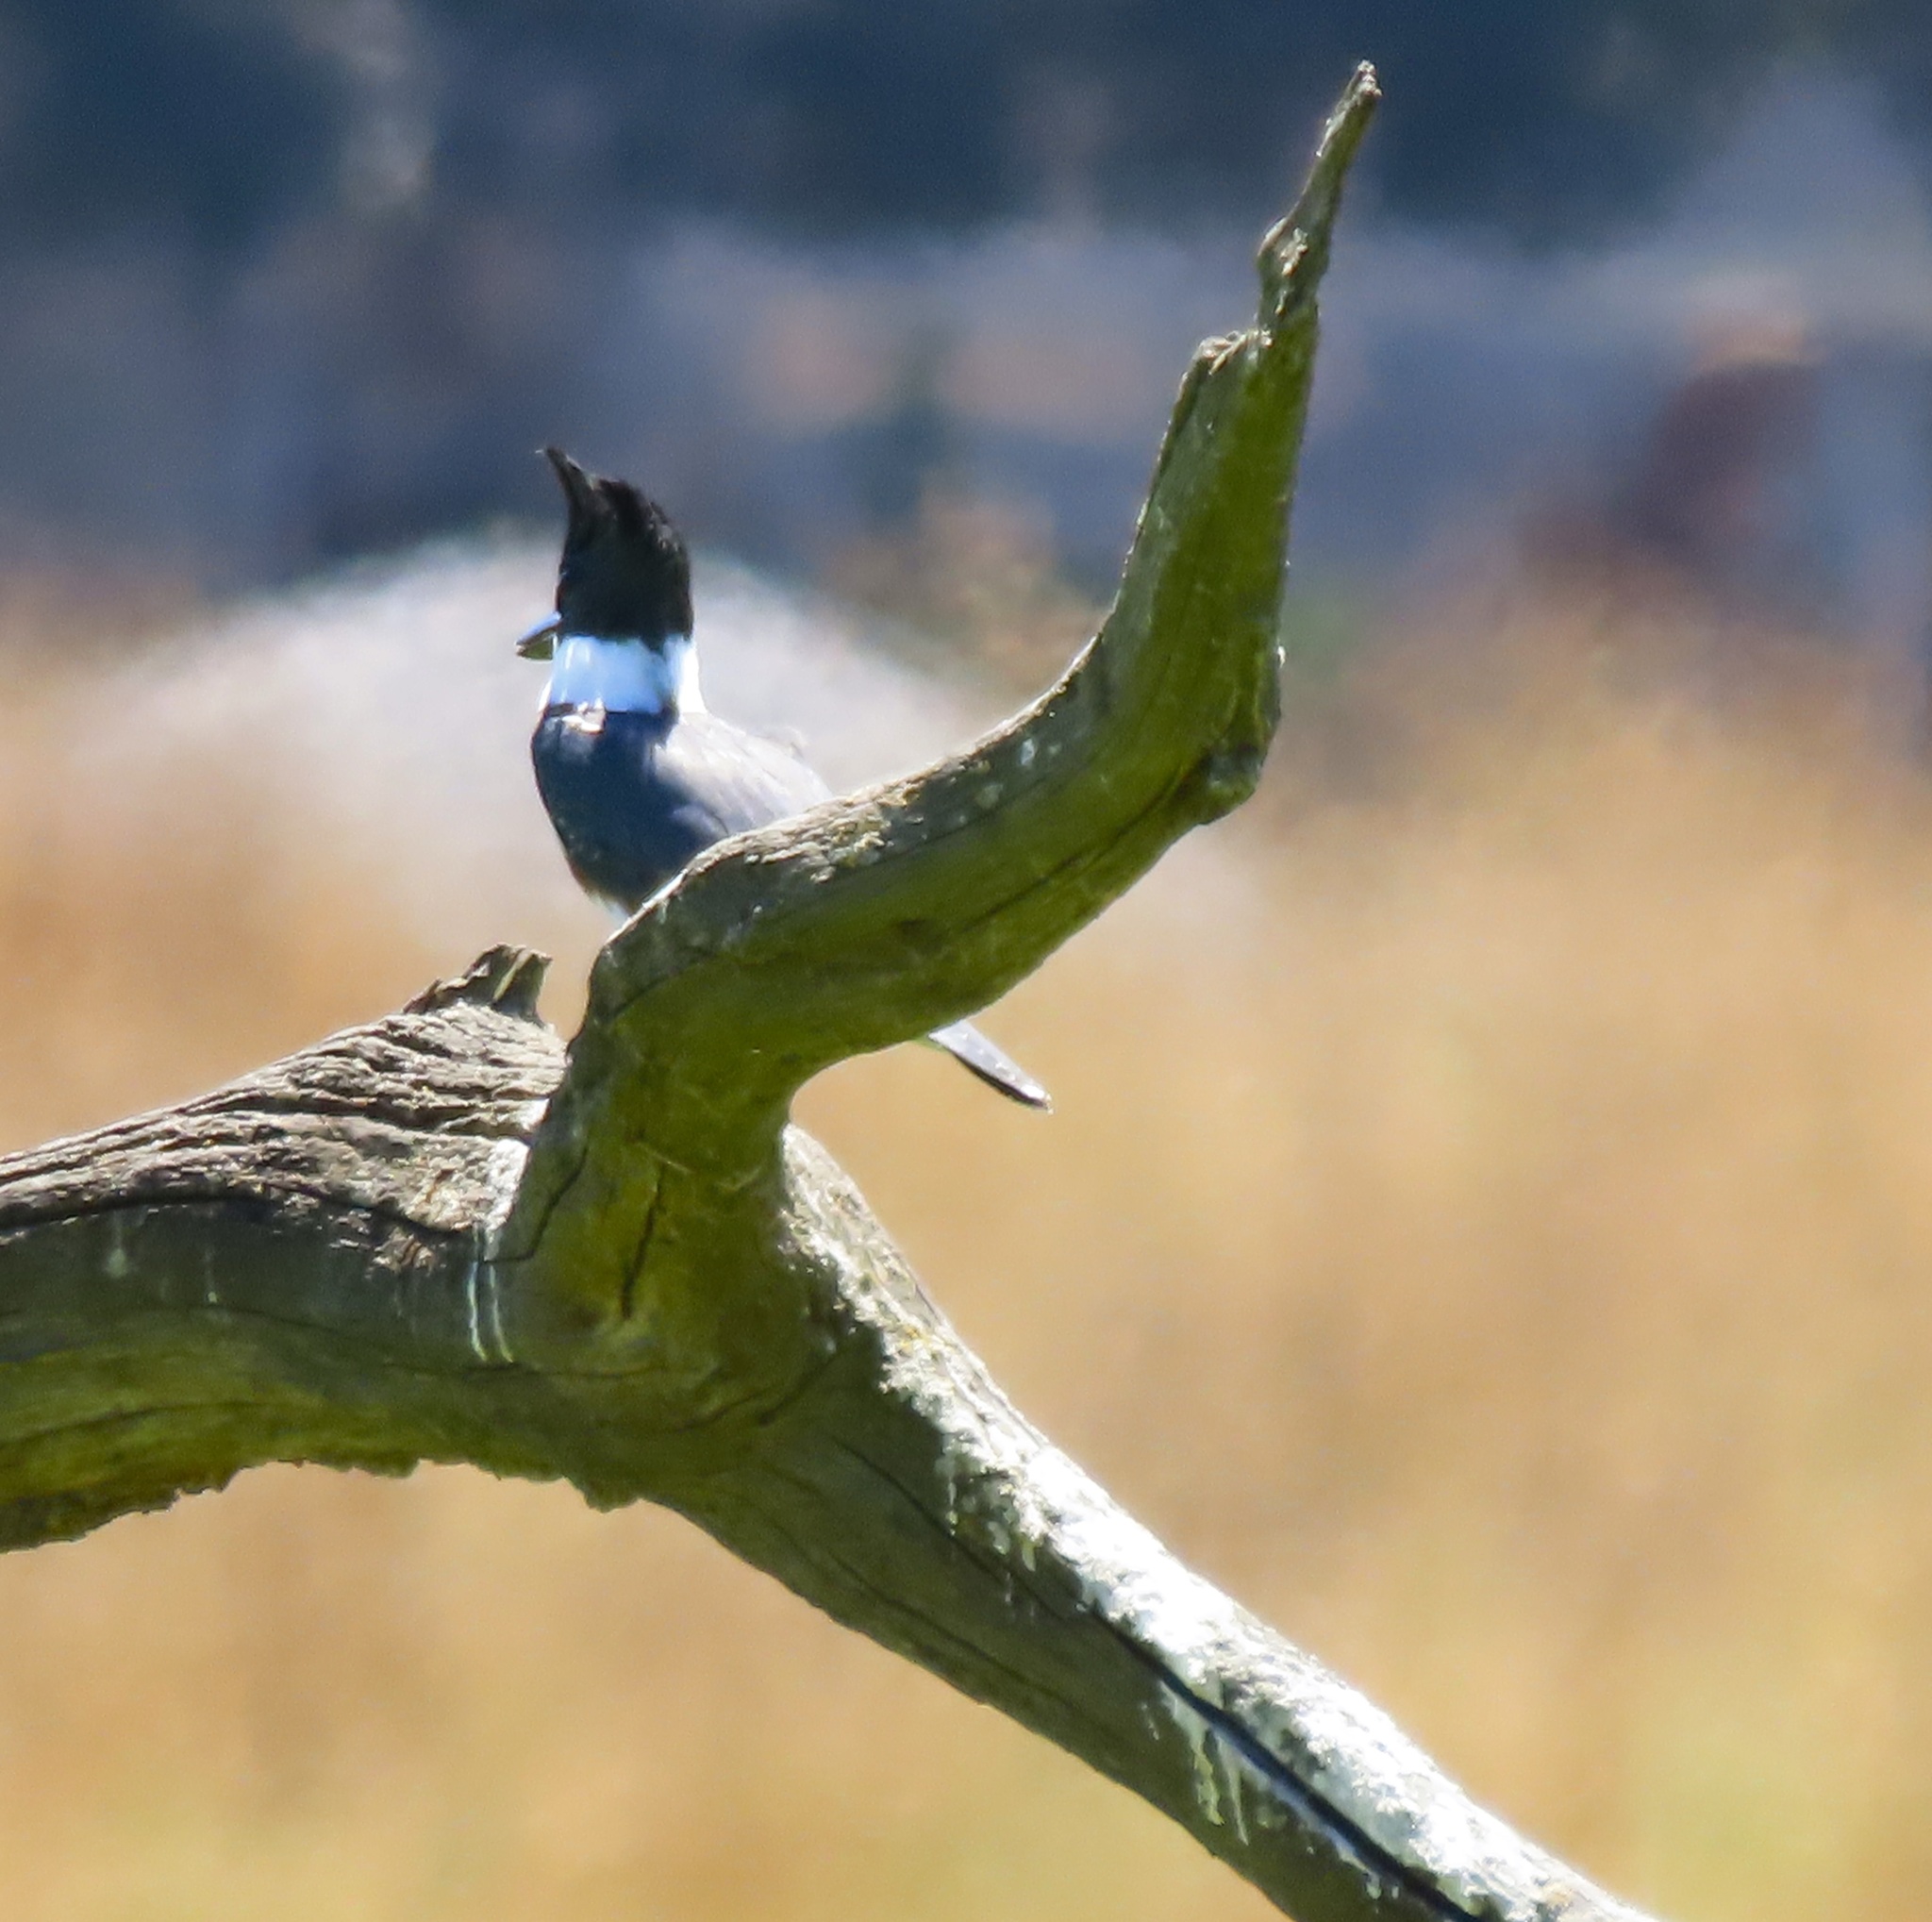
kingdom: Animalia
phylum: Chordata
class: Aves
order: Coraciiformes
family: Alcedinidae
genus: Megaceryle
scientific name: Megaceryle alcyon
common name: Belted kingfisher
